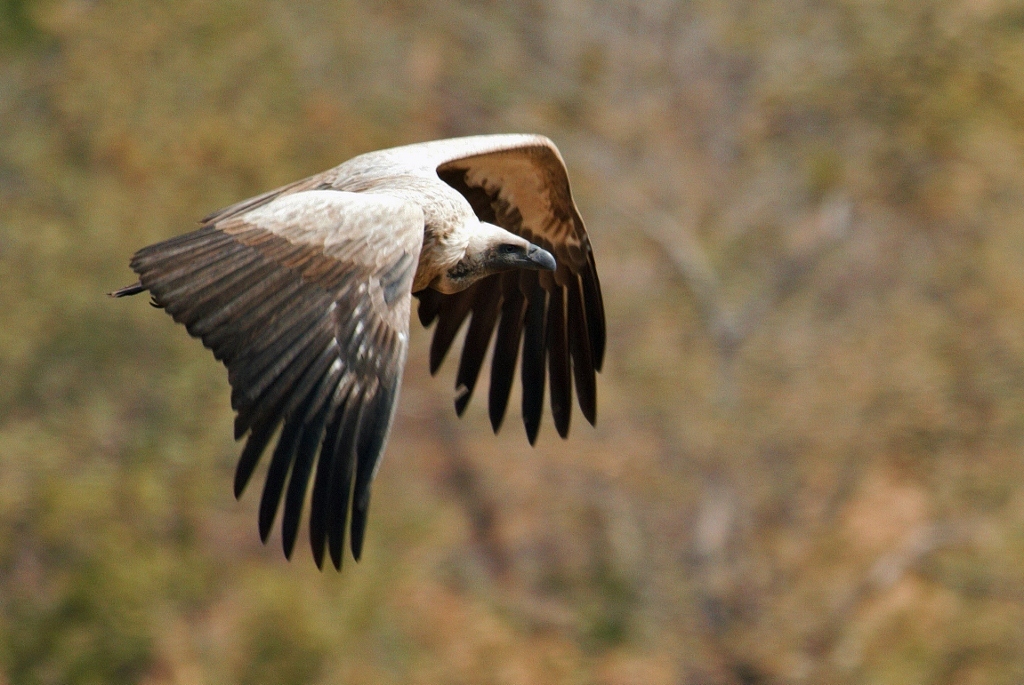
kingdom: Animalia
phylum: Chordata
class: Aves
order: Accipitriformes
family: Accipitridae
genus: Gyps
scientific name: Gyps africanus
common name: White-backed vulture
